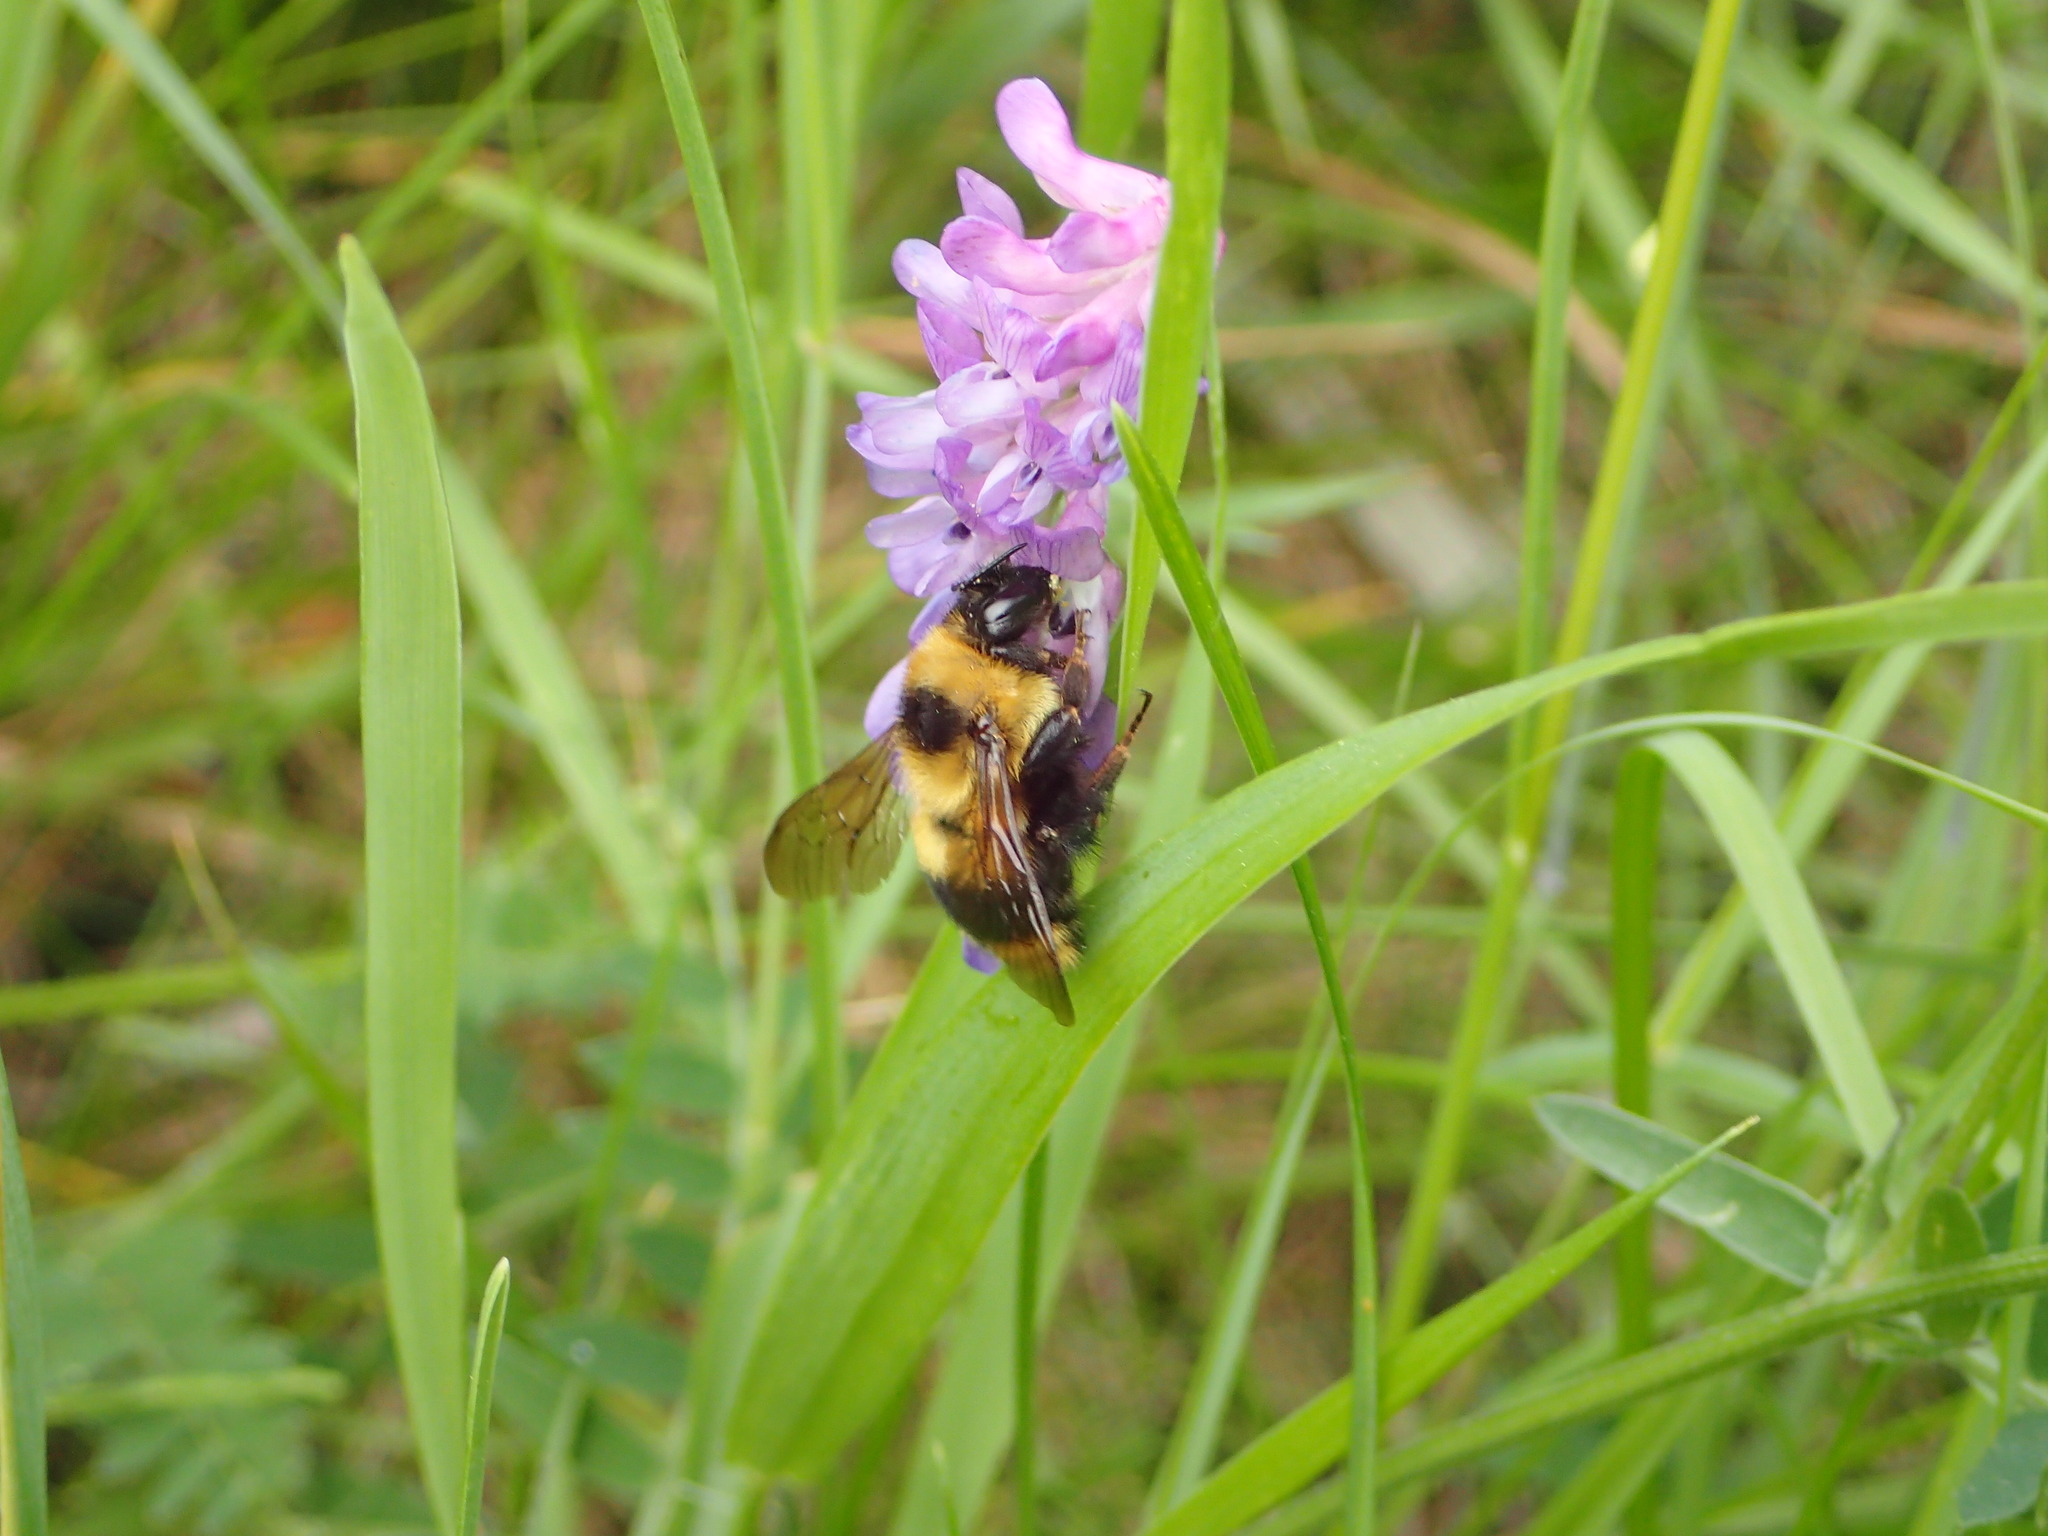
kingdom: Animalia
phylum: Arthropoda
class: Insecta
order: Hymenoptera
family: Apidae
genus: Bombus
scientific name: Bombus rufocinctus
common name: Red-belted bumble bee
